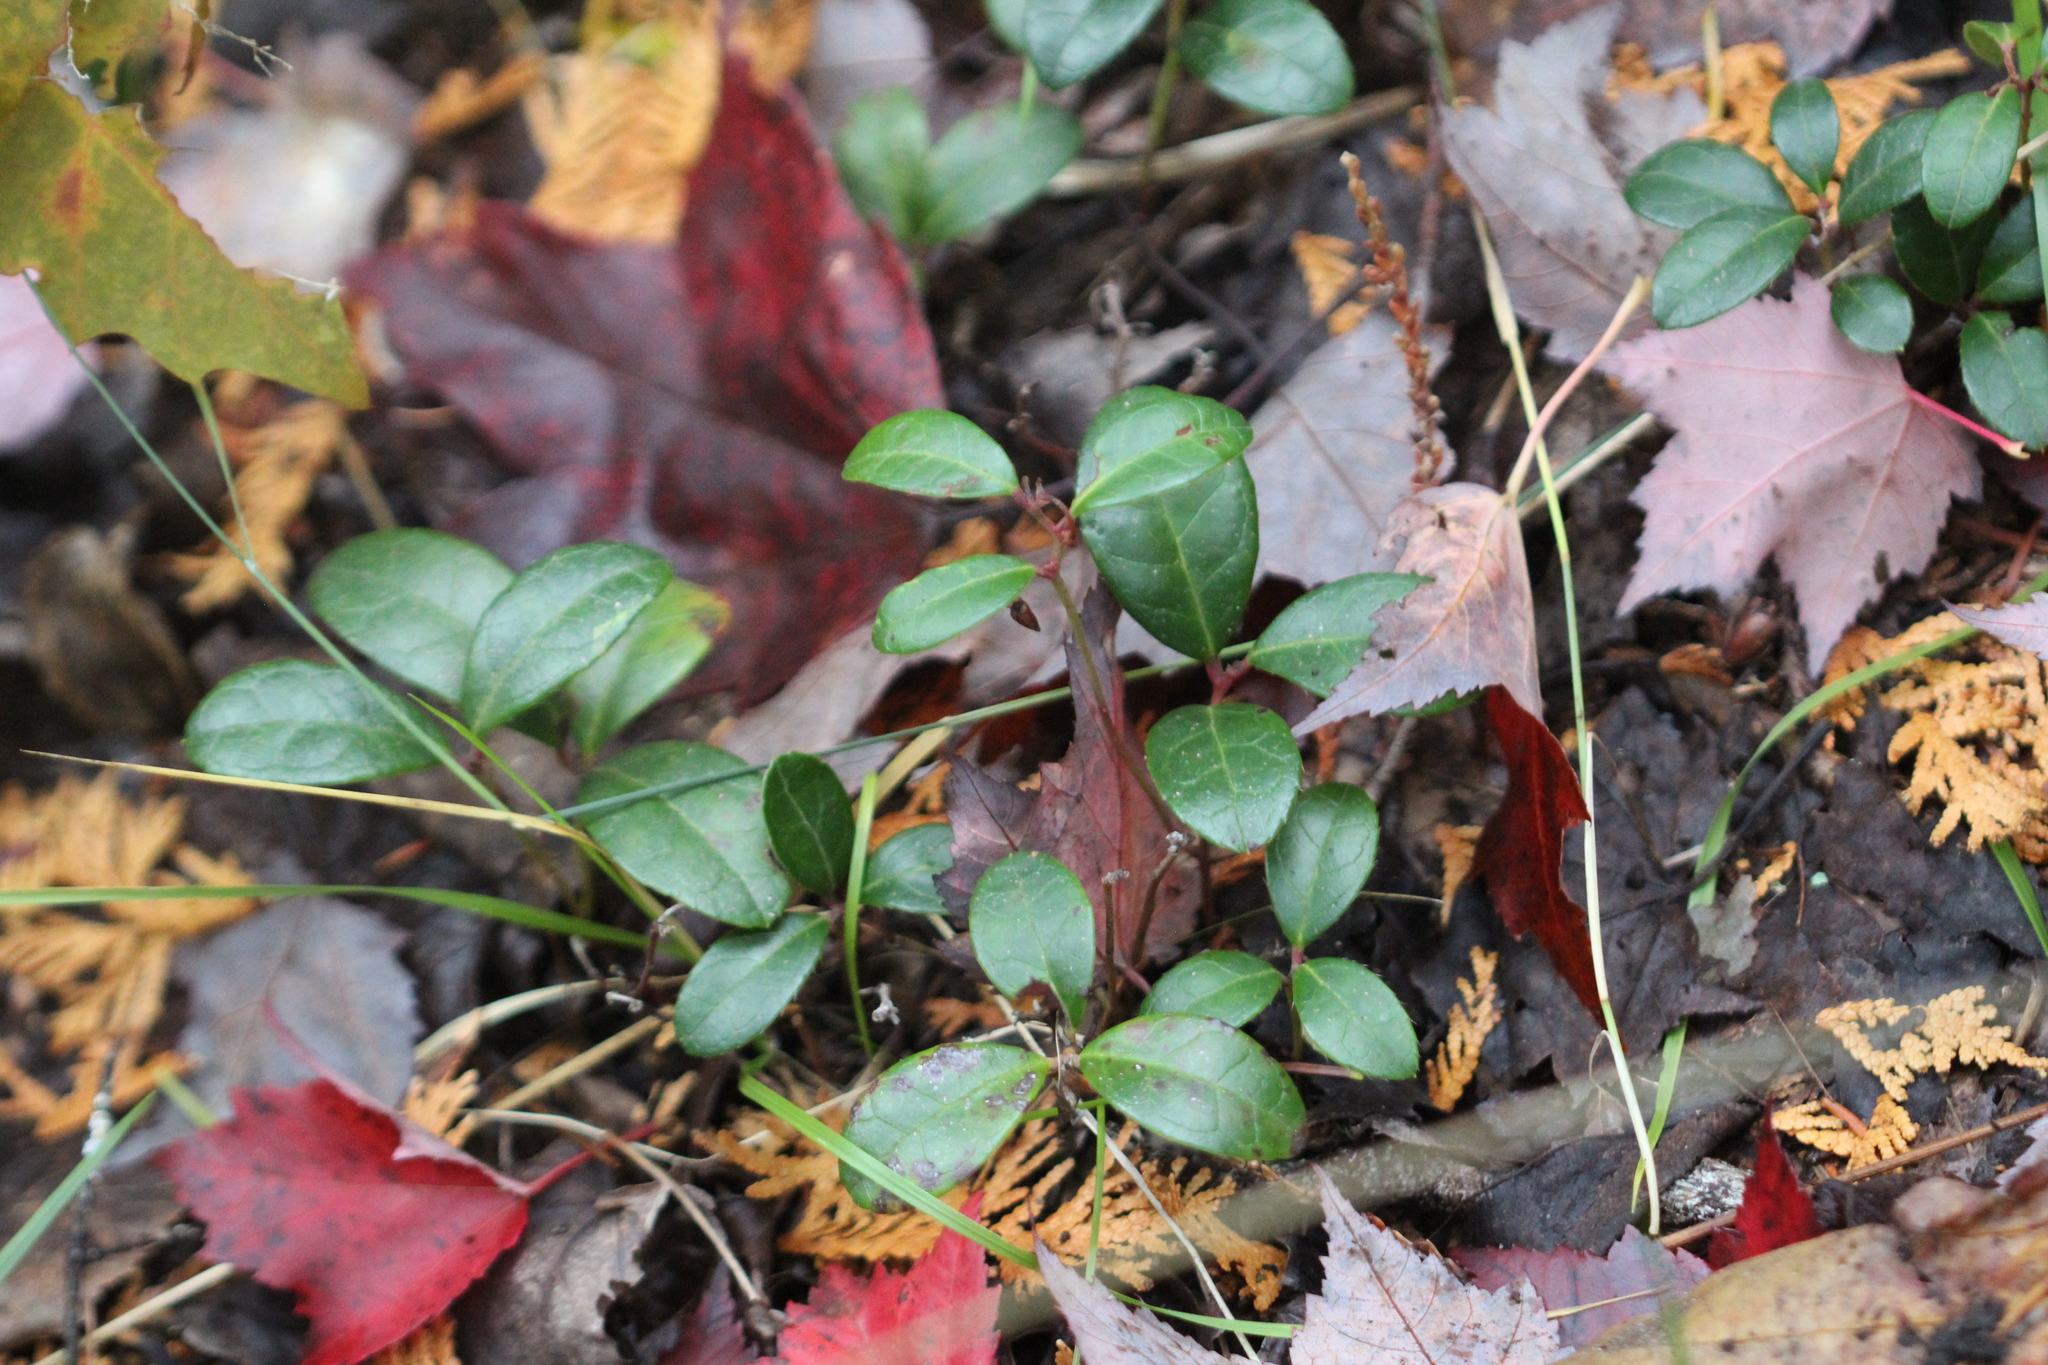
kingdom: Plantae
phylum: Tracheophyta
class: Magnoliopsida
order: Ericales
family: Ericaceae
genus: Gaultheria
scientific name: Gaultheria procumbens
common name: Checkerberry
